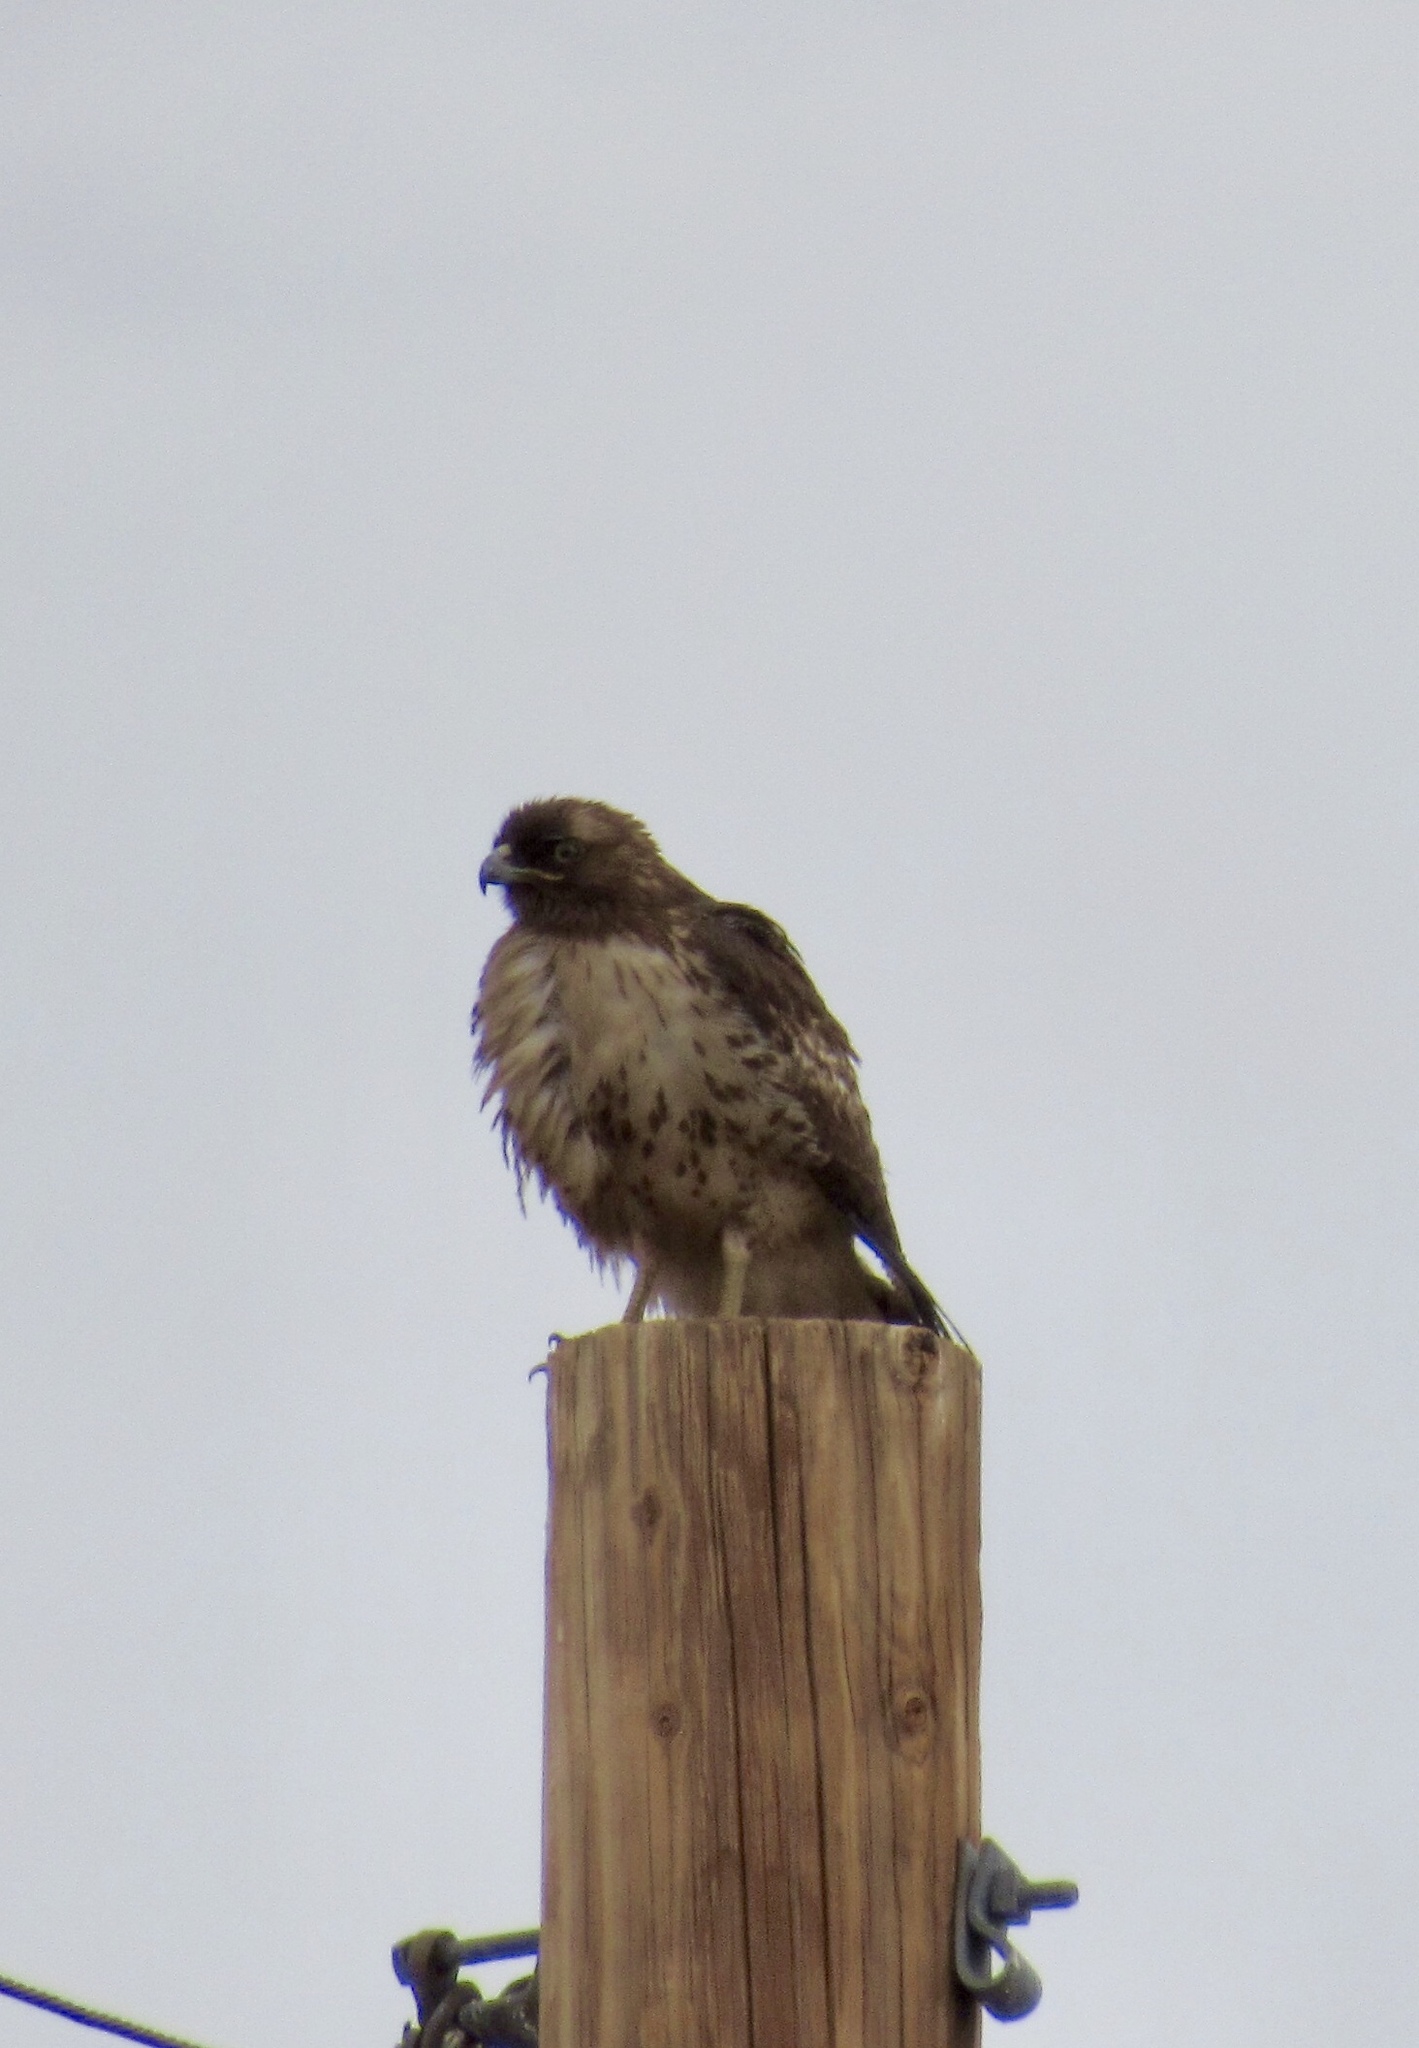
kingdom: Animalia
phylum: Chordata
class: Aves
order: Accipitriformes
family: Accipitridae
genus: Buteo
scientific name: Buteo jamaicensis
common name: Red-tailed hawk
